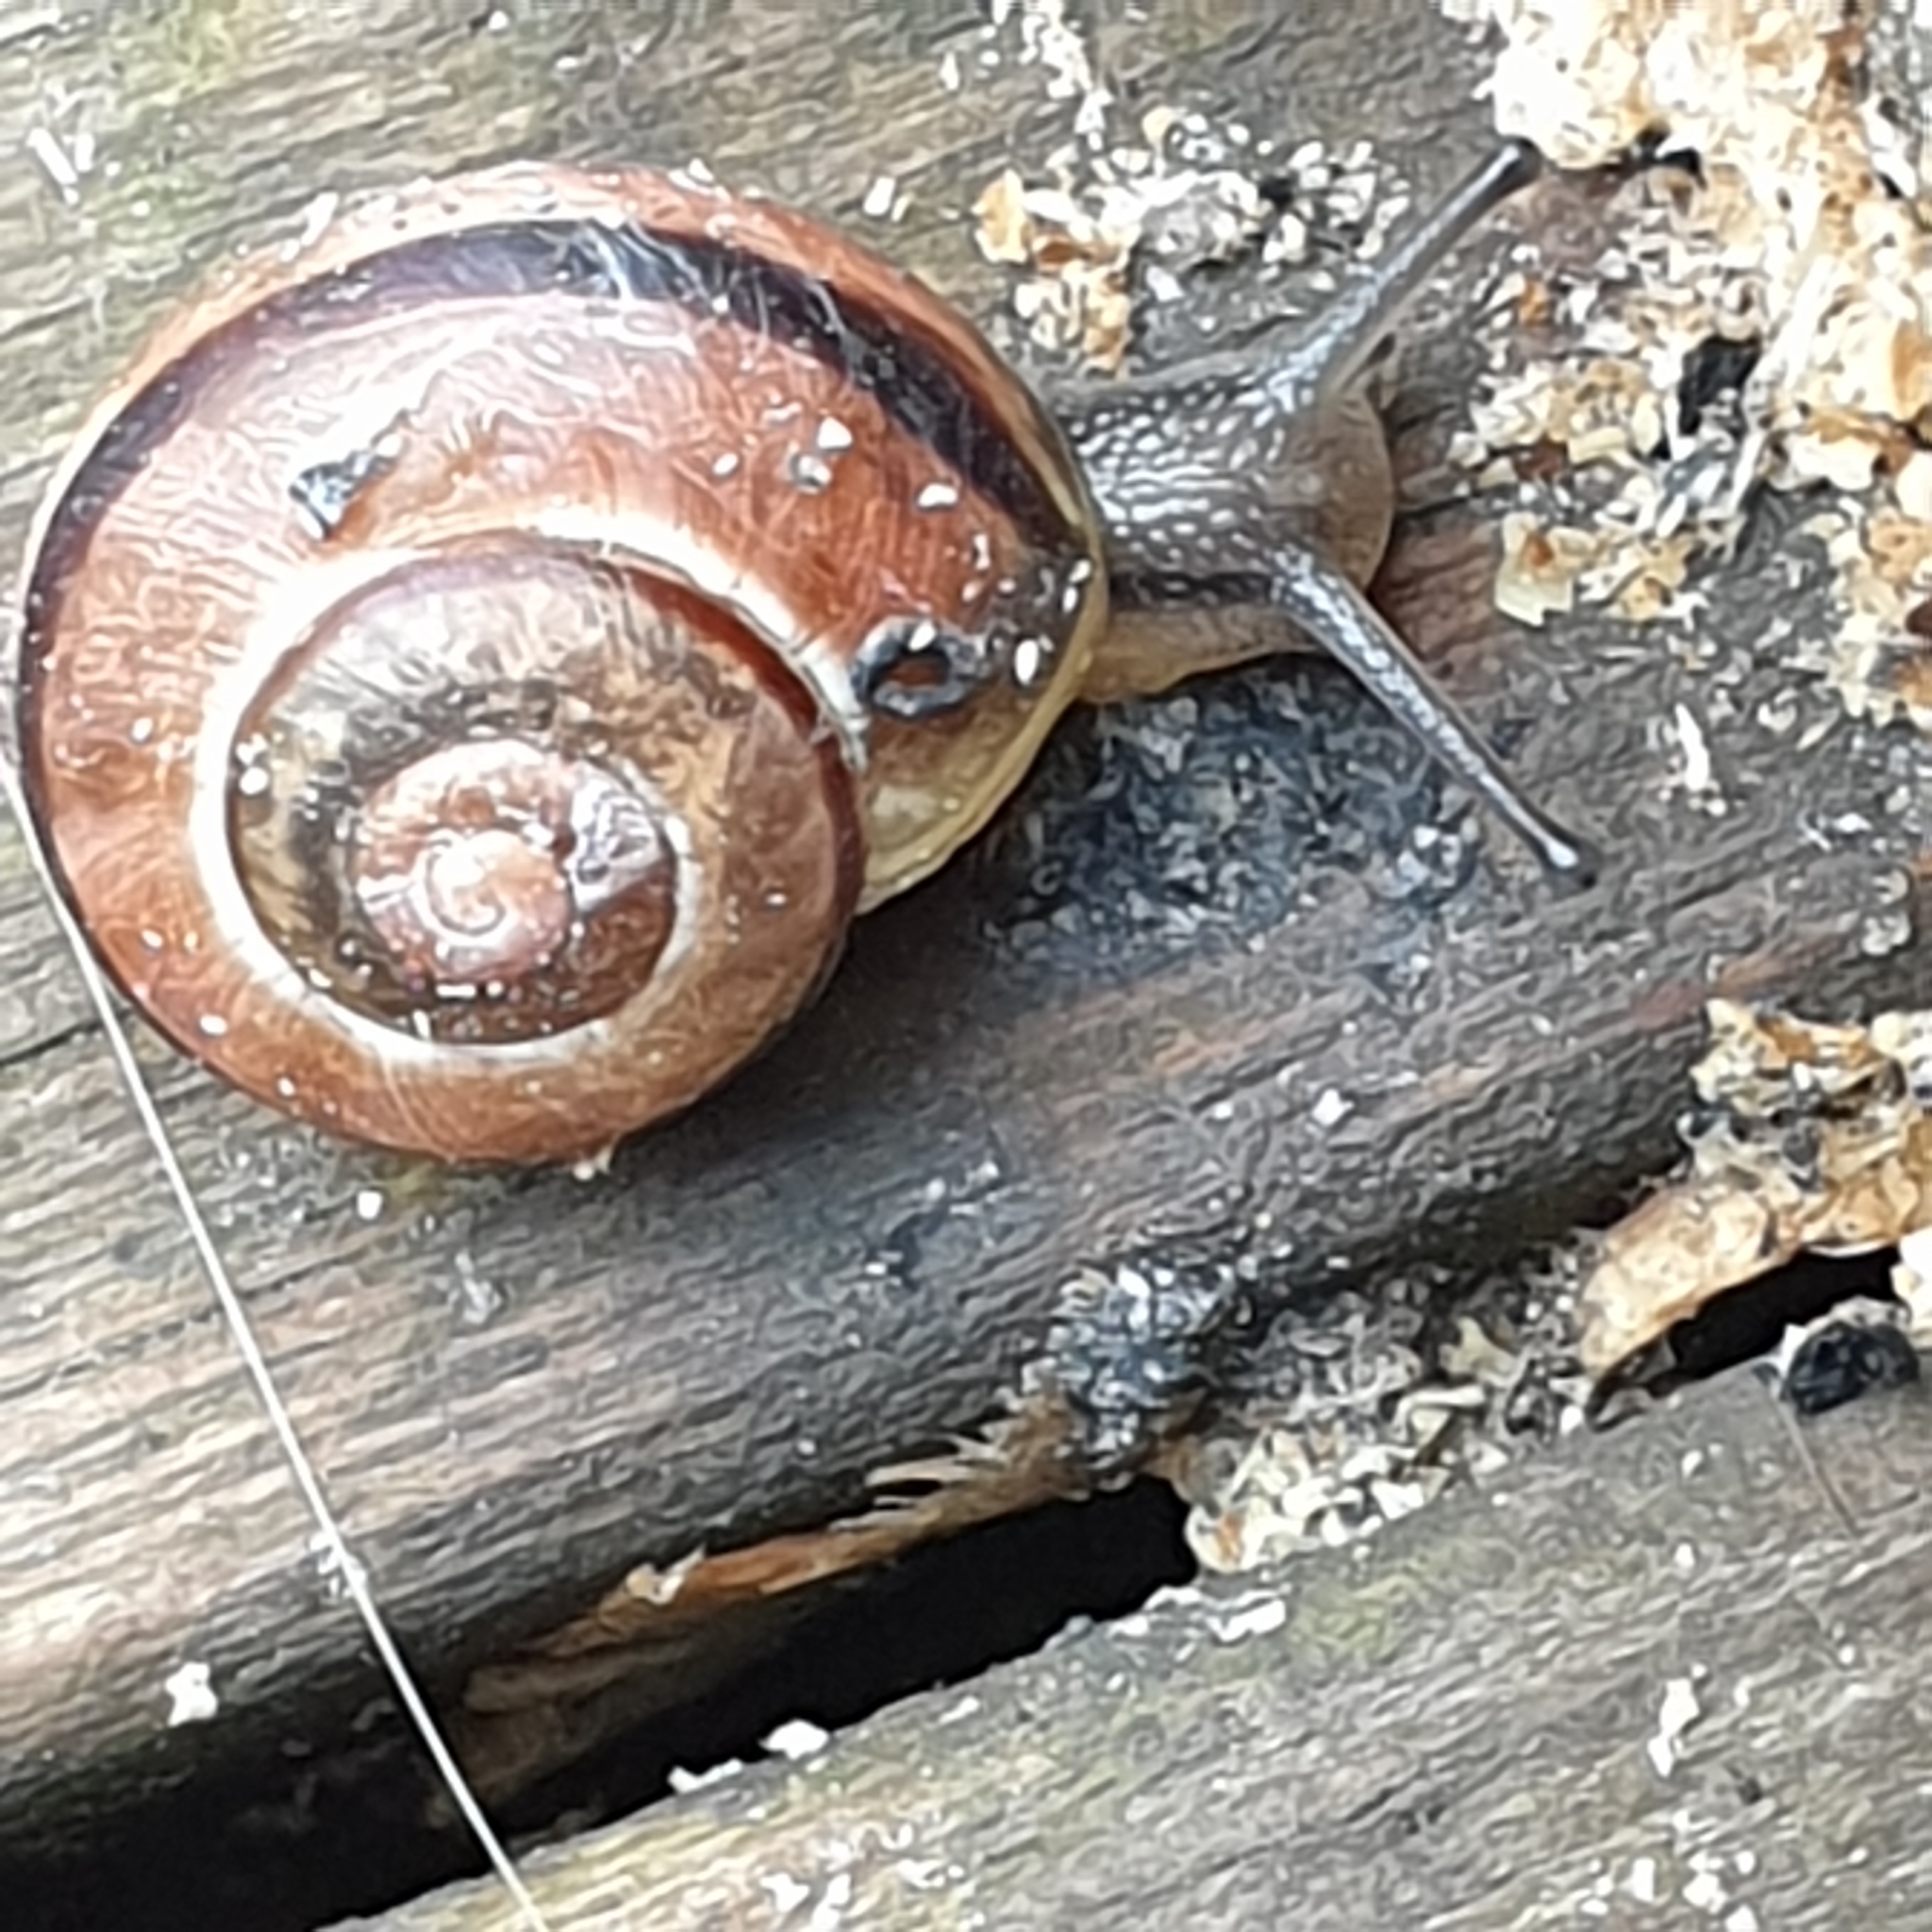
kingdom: Animalia
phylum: Mollusca
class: Gastropoda
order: Stylommatophora
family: Helicidae
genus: Cepaea
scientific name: Cepaea
